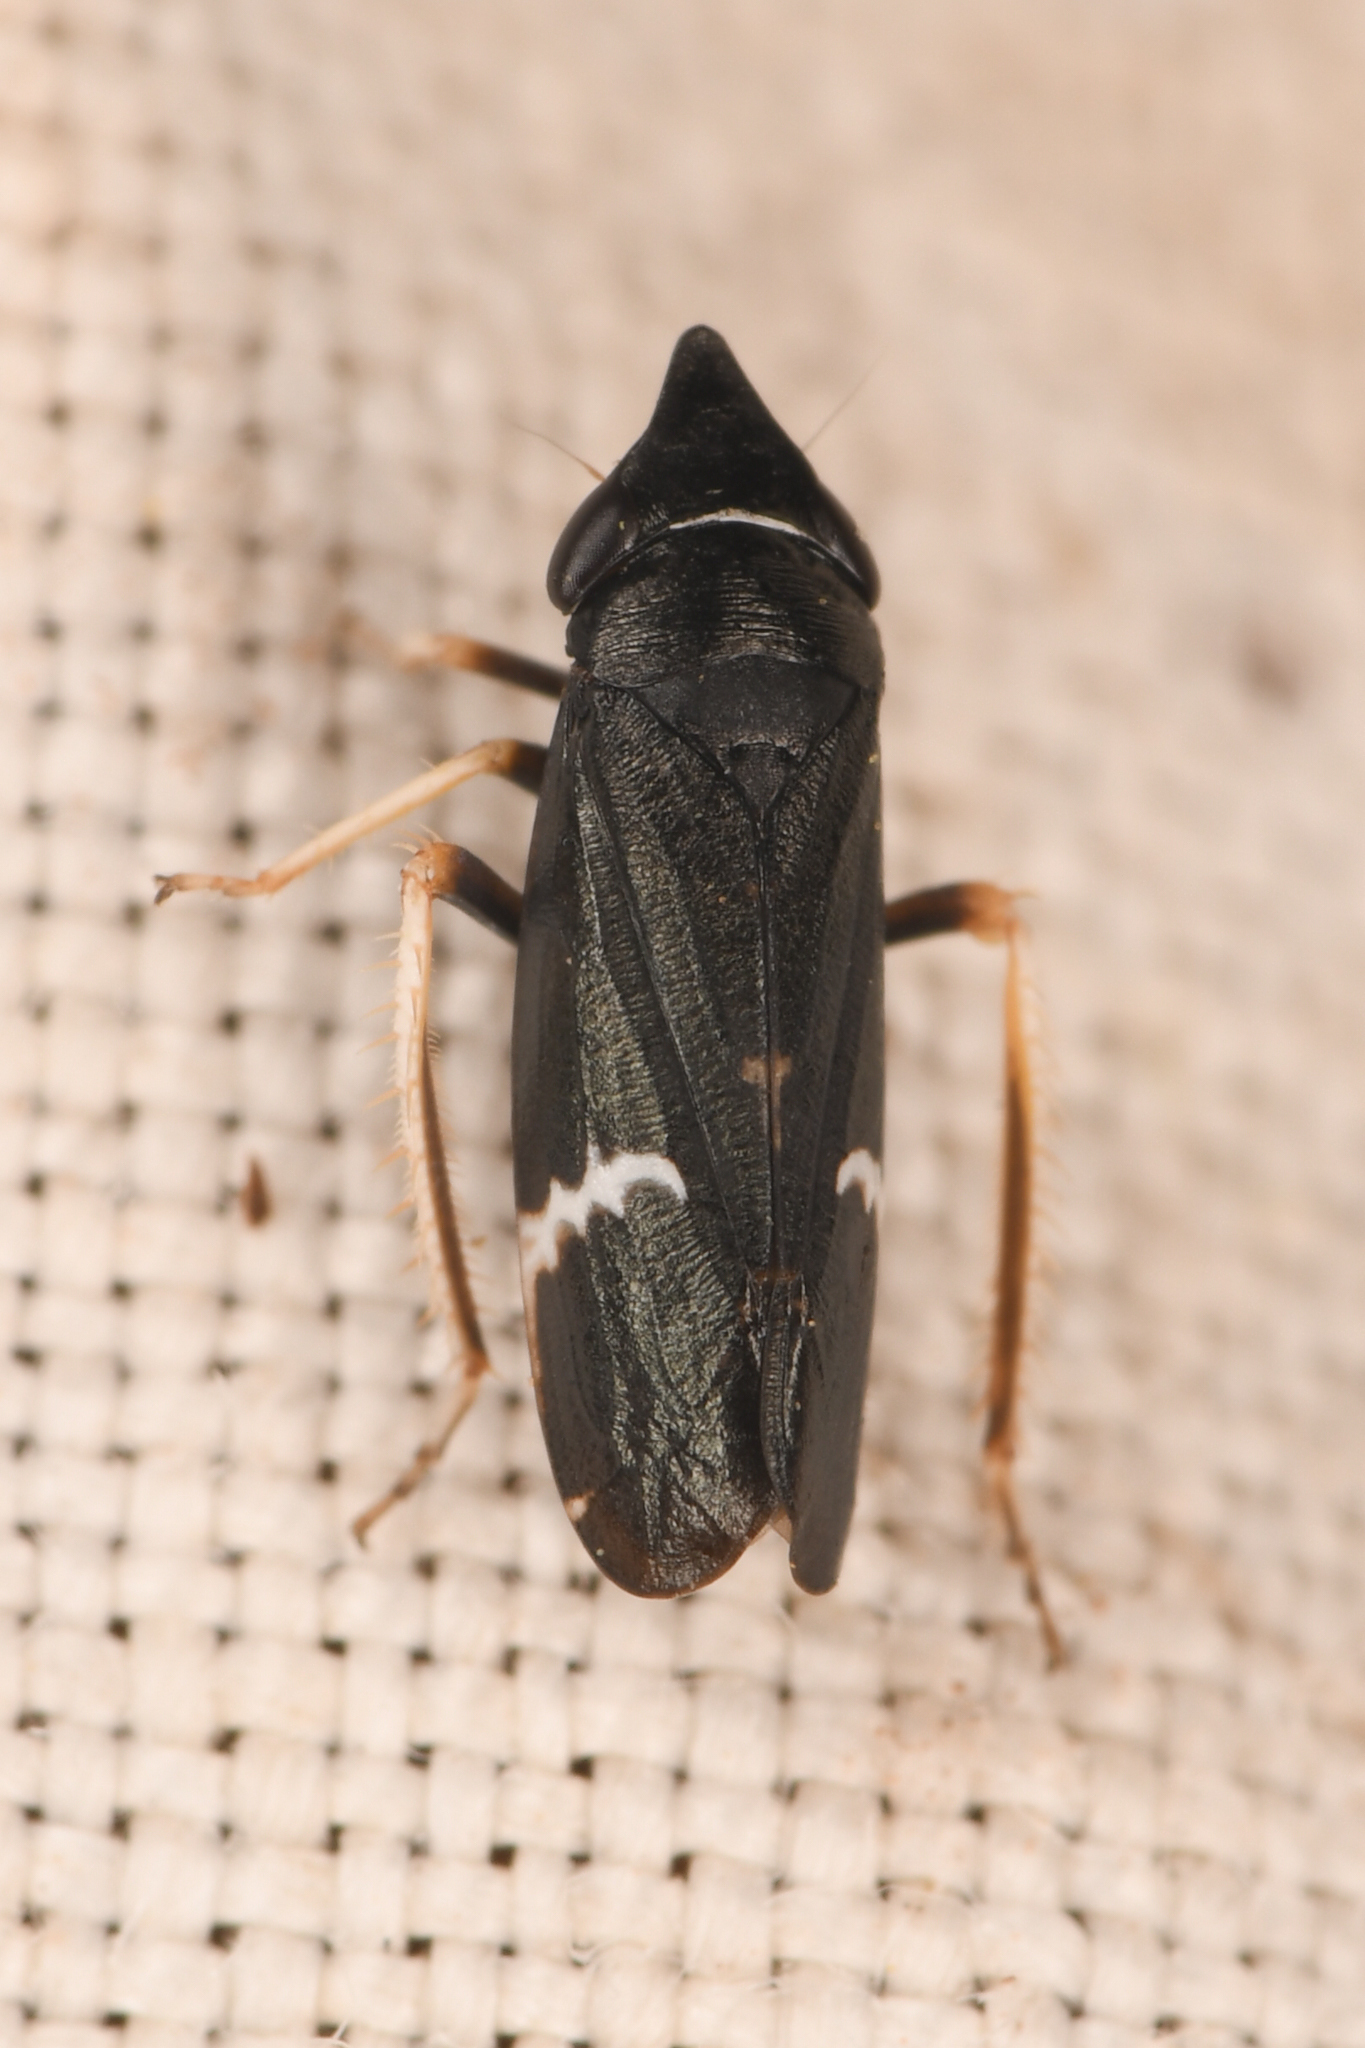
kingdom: Animalia
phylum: Arthropoda
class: Insecta
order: Hemiptera
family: Cicadellidae
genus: Cochlorhinus
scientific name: Cochlorhinus pluto
